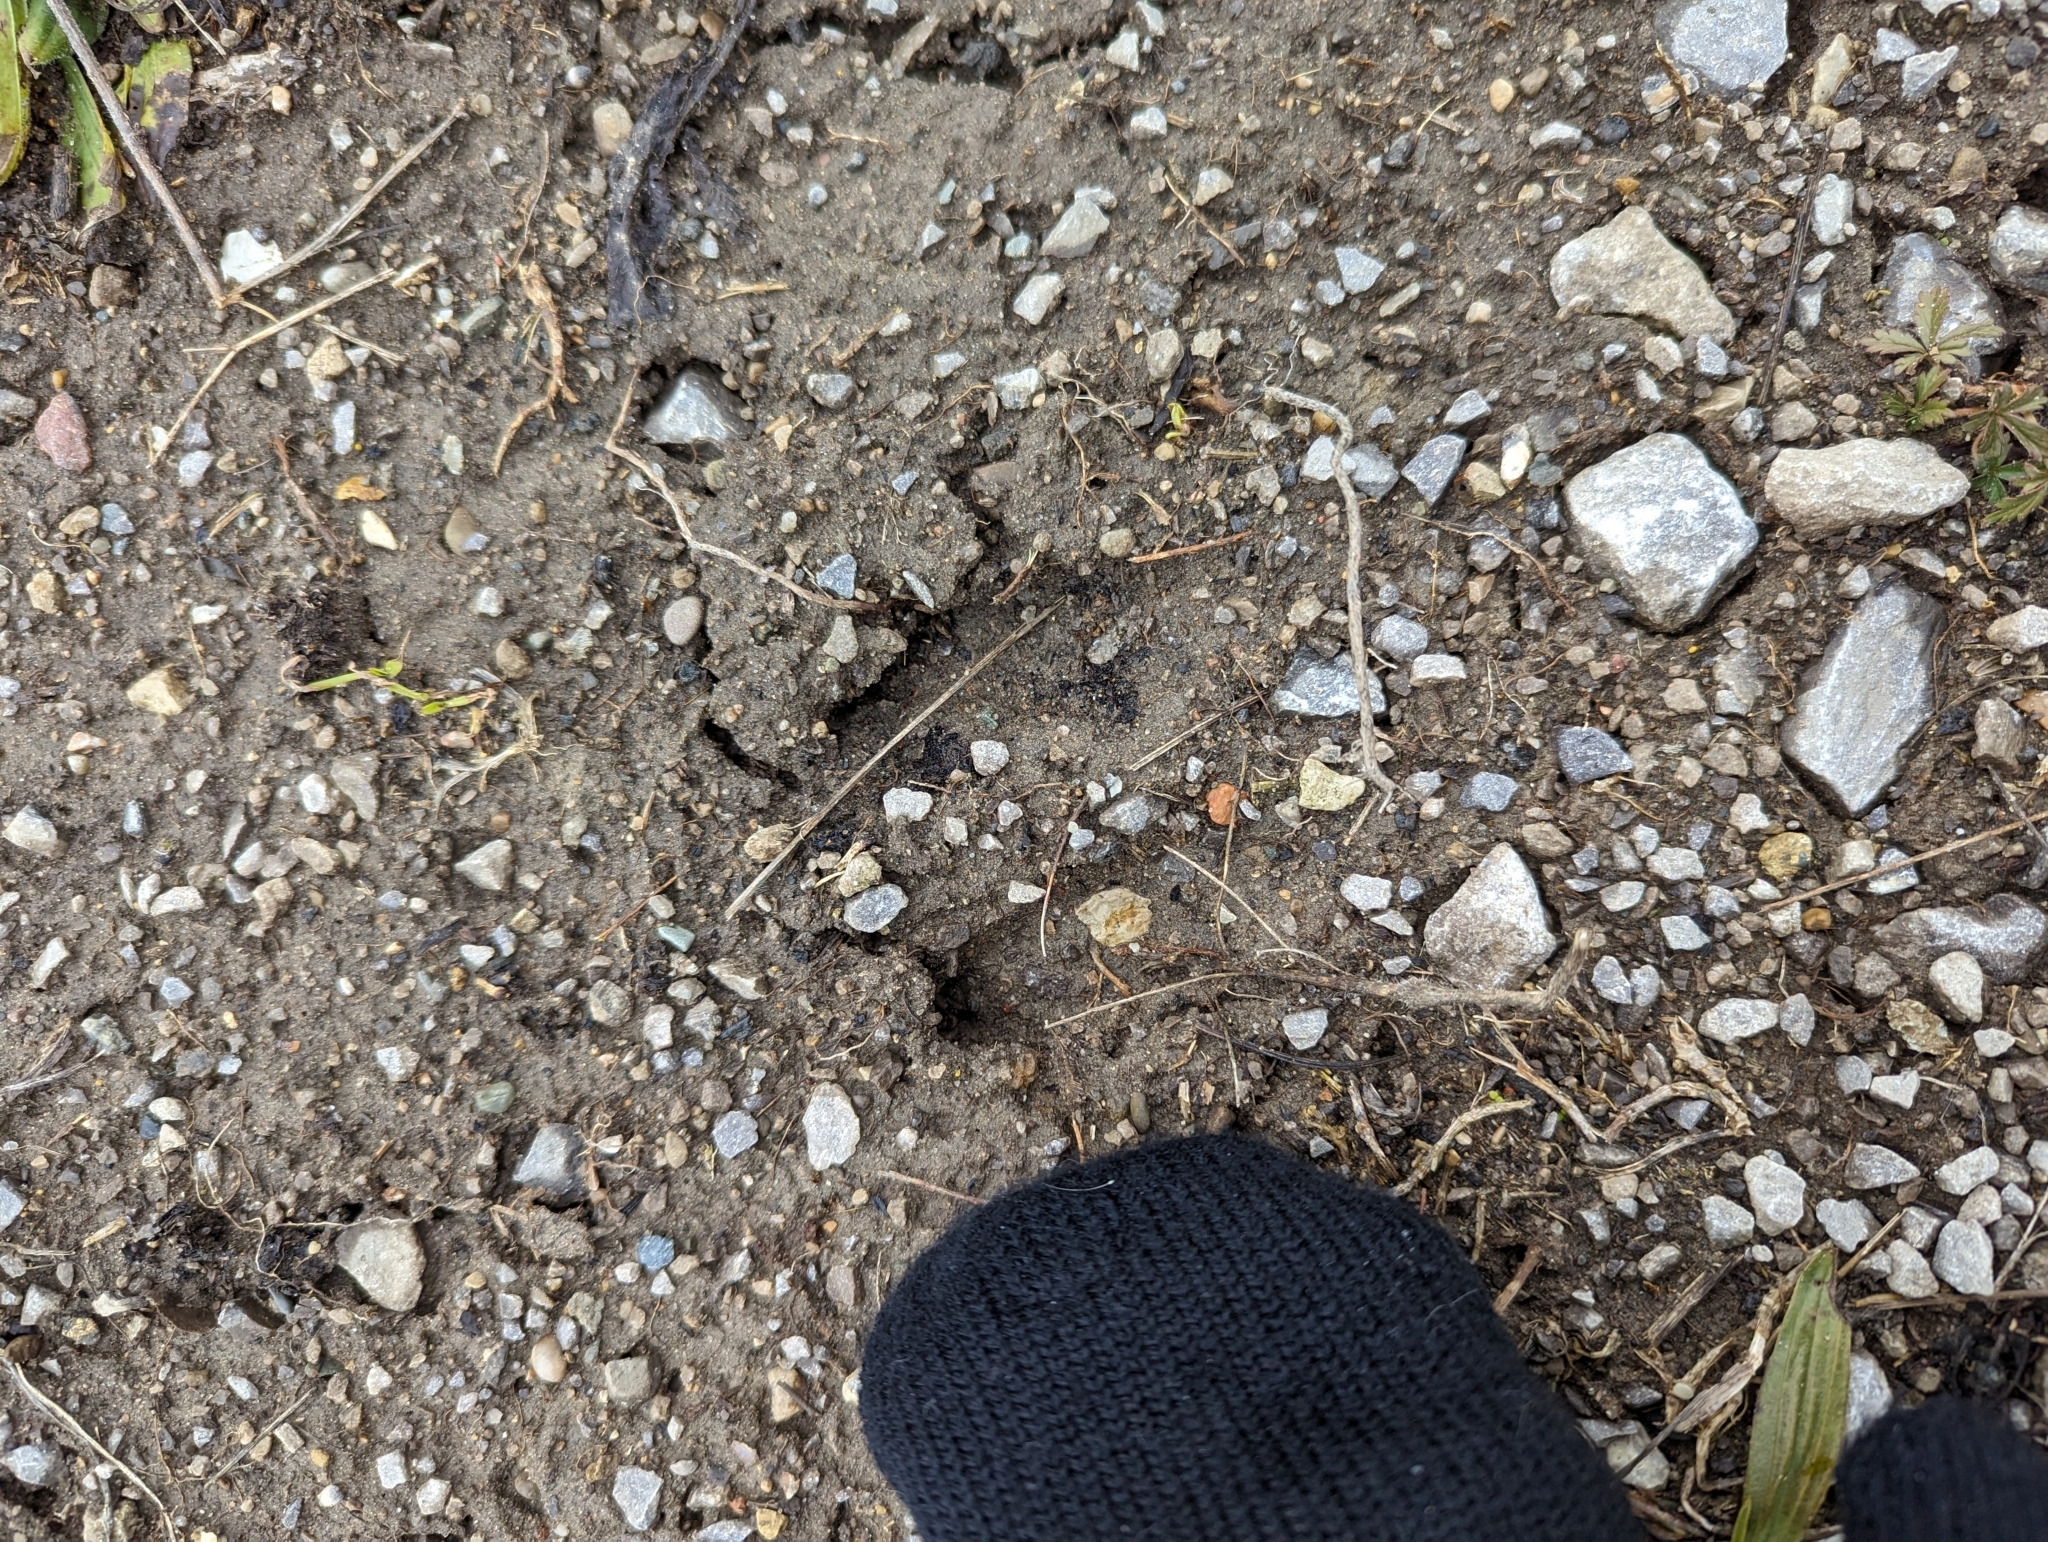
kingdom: Animalia
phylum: Chordata
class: Mammalia
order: Artiodactyla
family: Cervidae
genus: Odocoileus
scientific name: Odocoileus virginianus
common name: White-tailed deer
